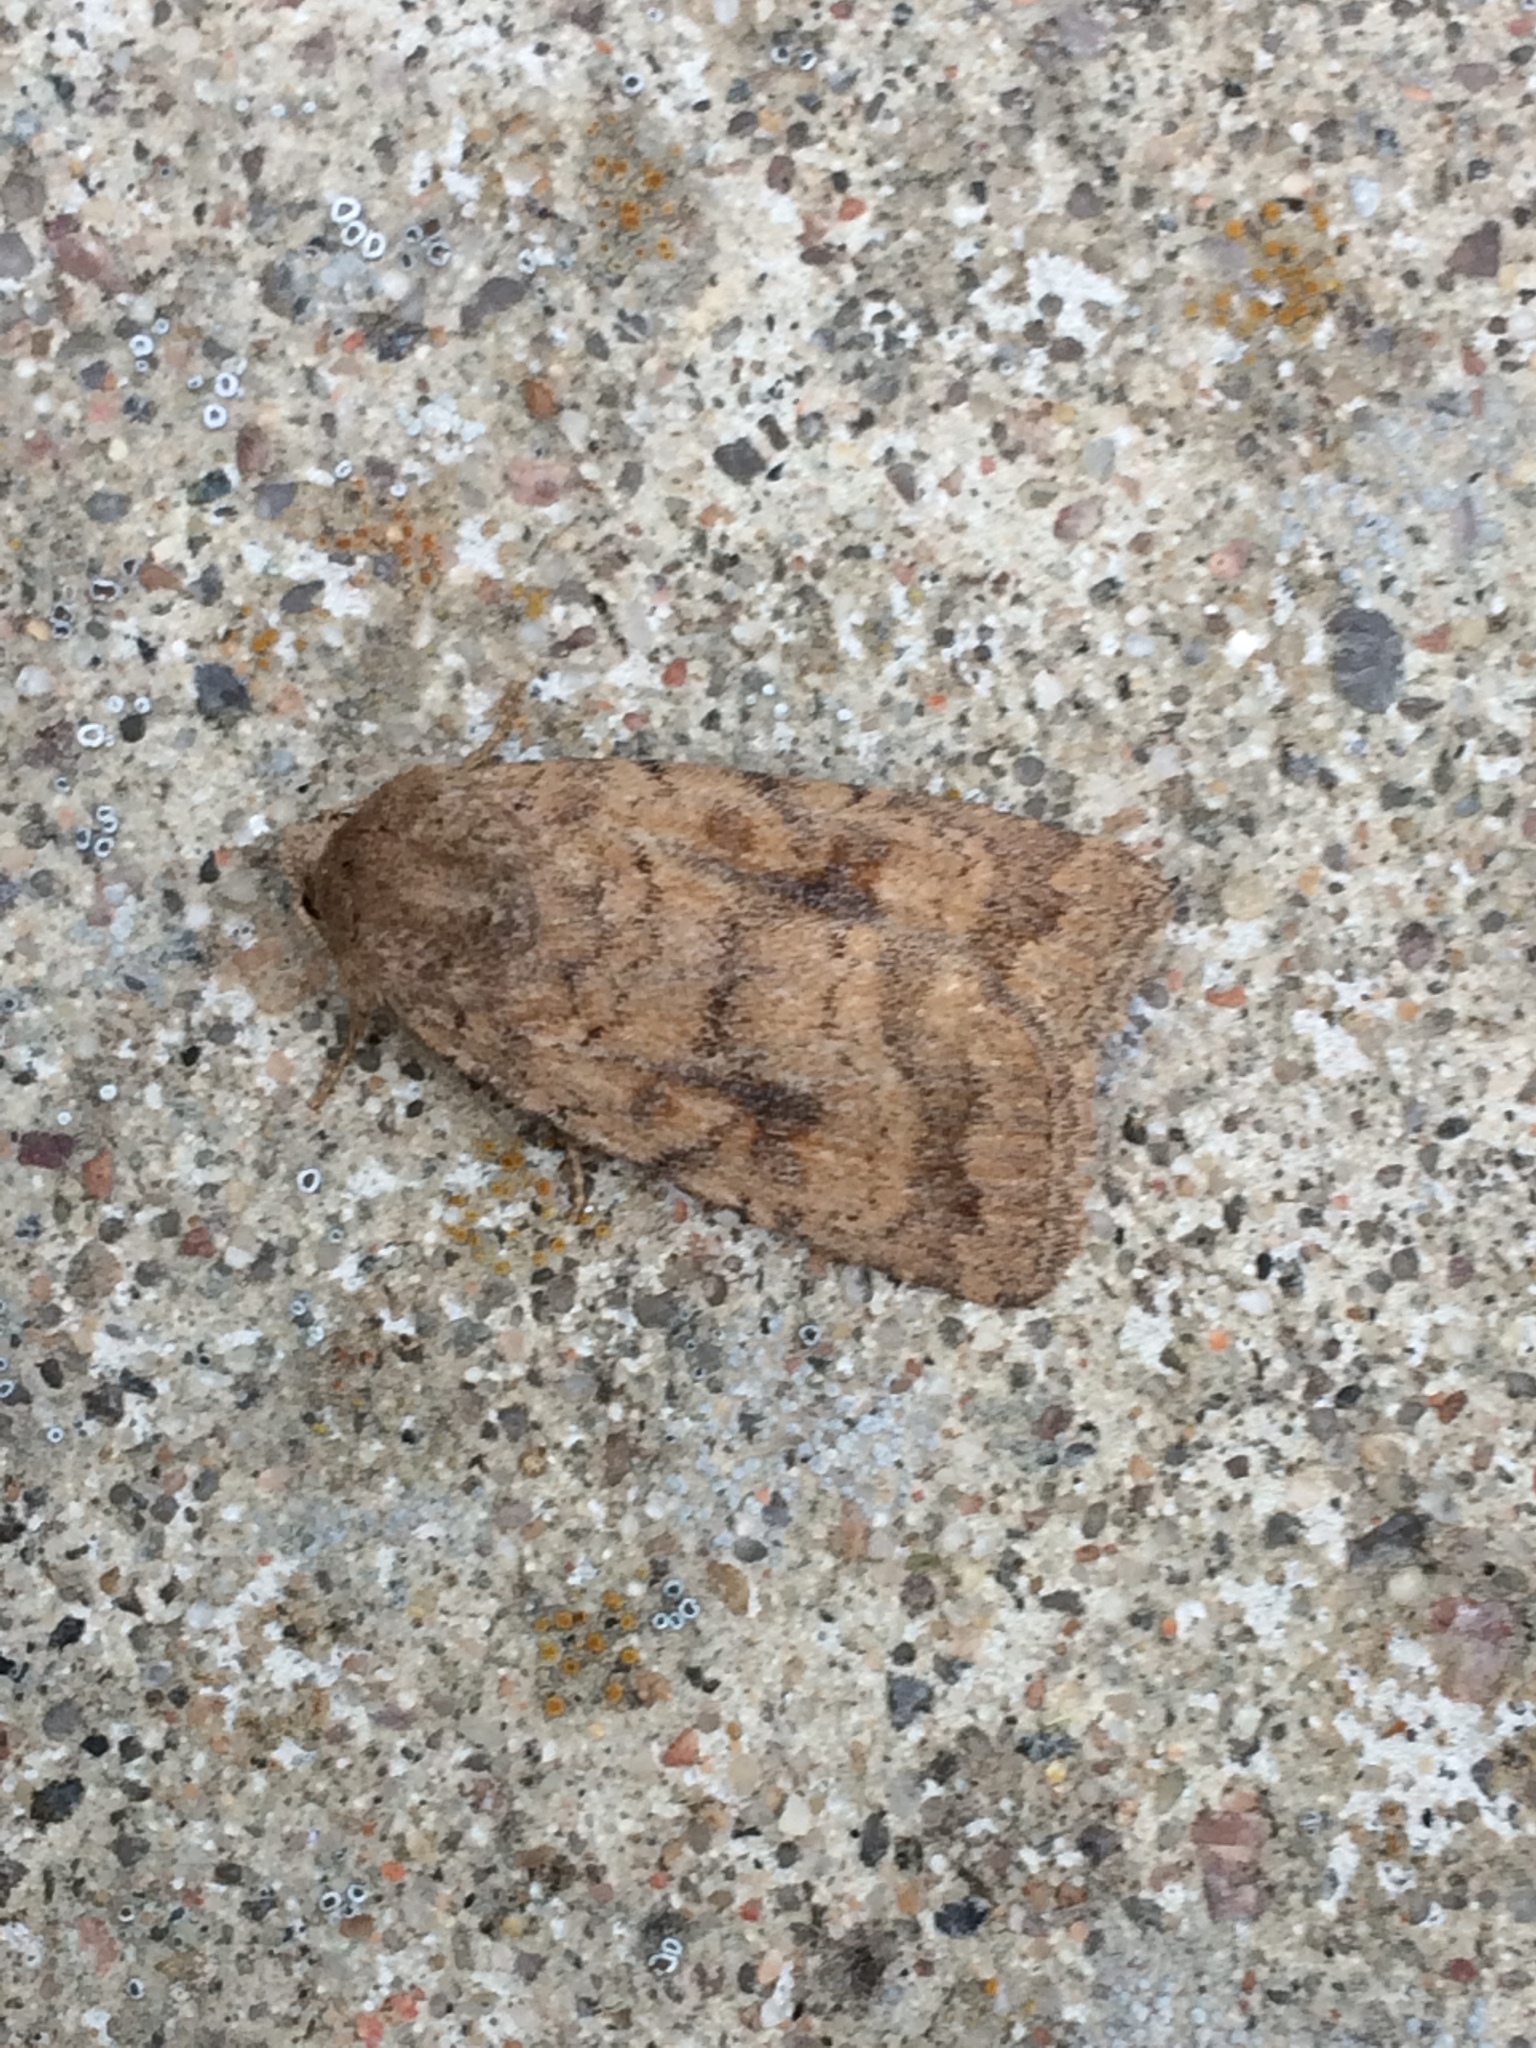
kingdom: Animalia
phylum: Arthropoda
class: Insecta
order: Lepidoptera
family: Noctuidae
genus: Caradrina
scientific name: Caradrina morpheus
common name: Mottled rustic
